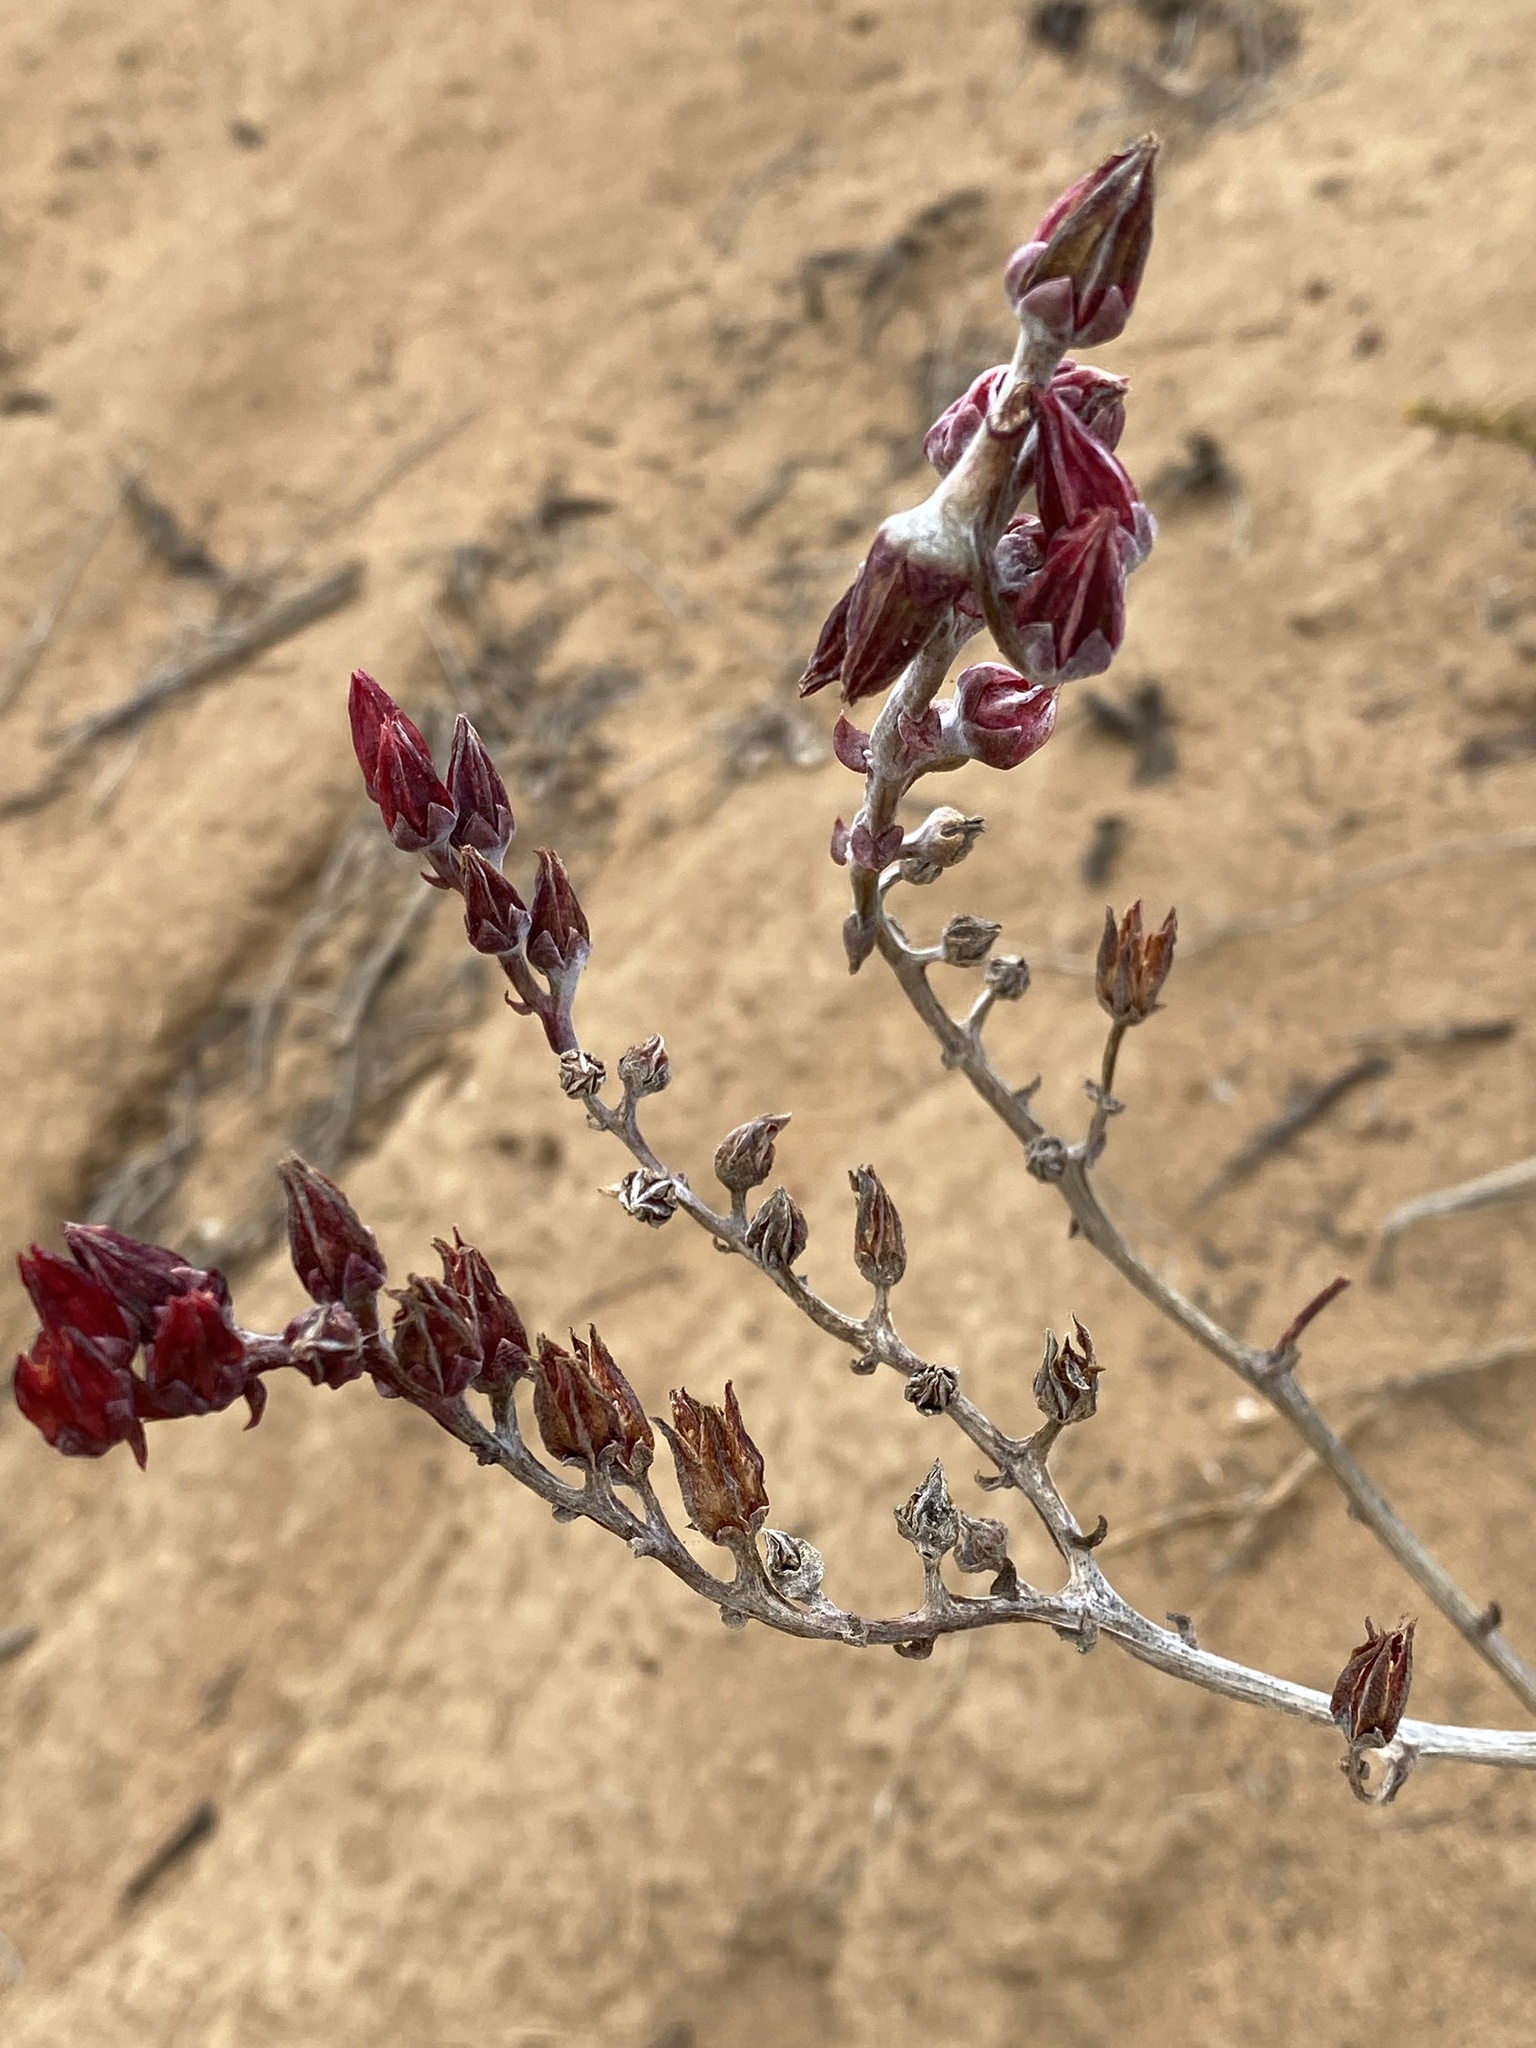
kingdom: Plantae
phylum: Tracheophyta
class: Magnoliopsida
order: Saxifragales
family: Crassulaceae
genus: Dudleya
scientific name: Dudleya lanceolata
